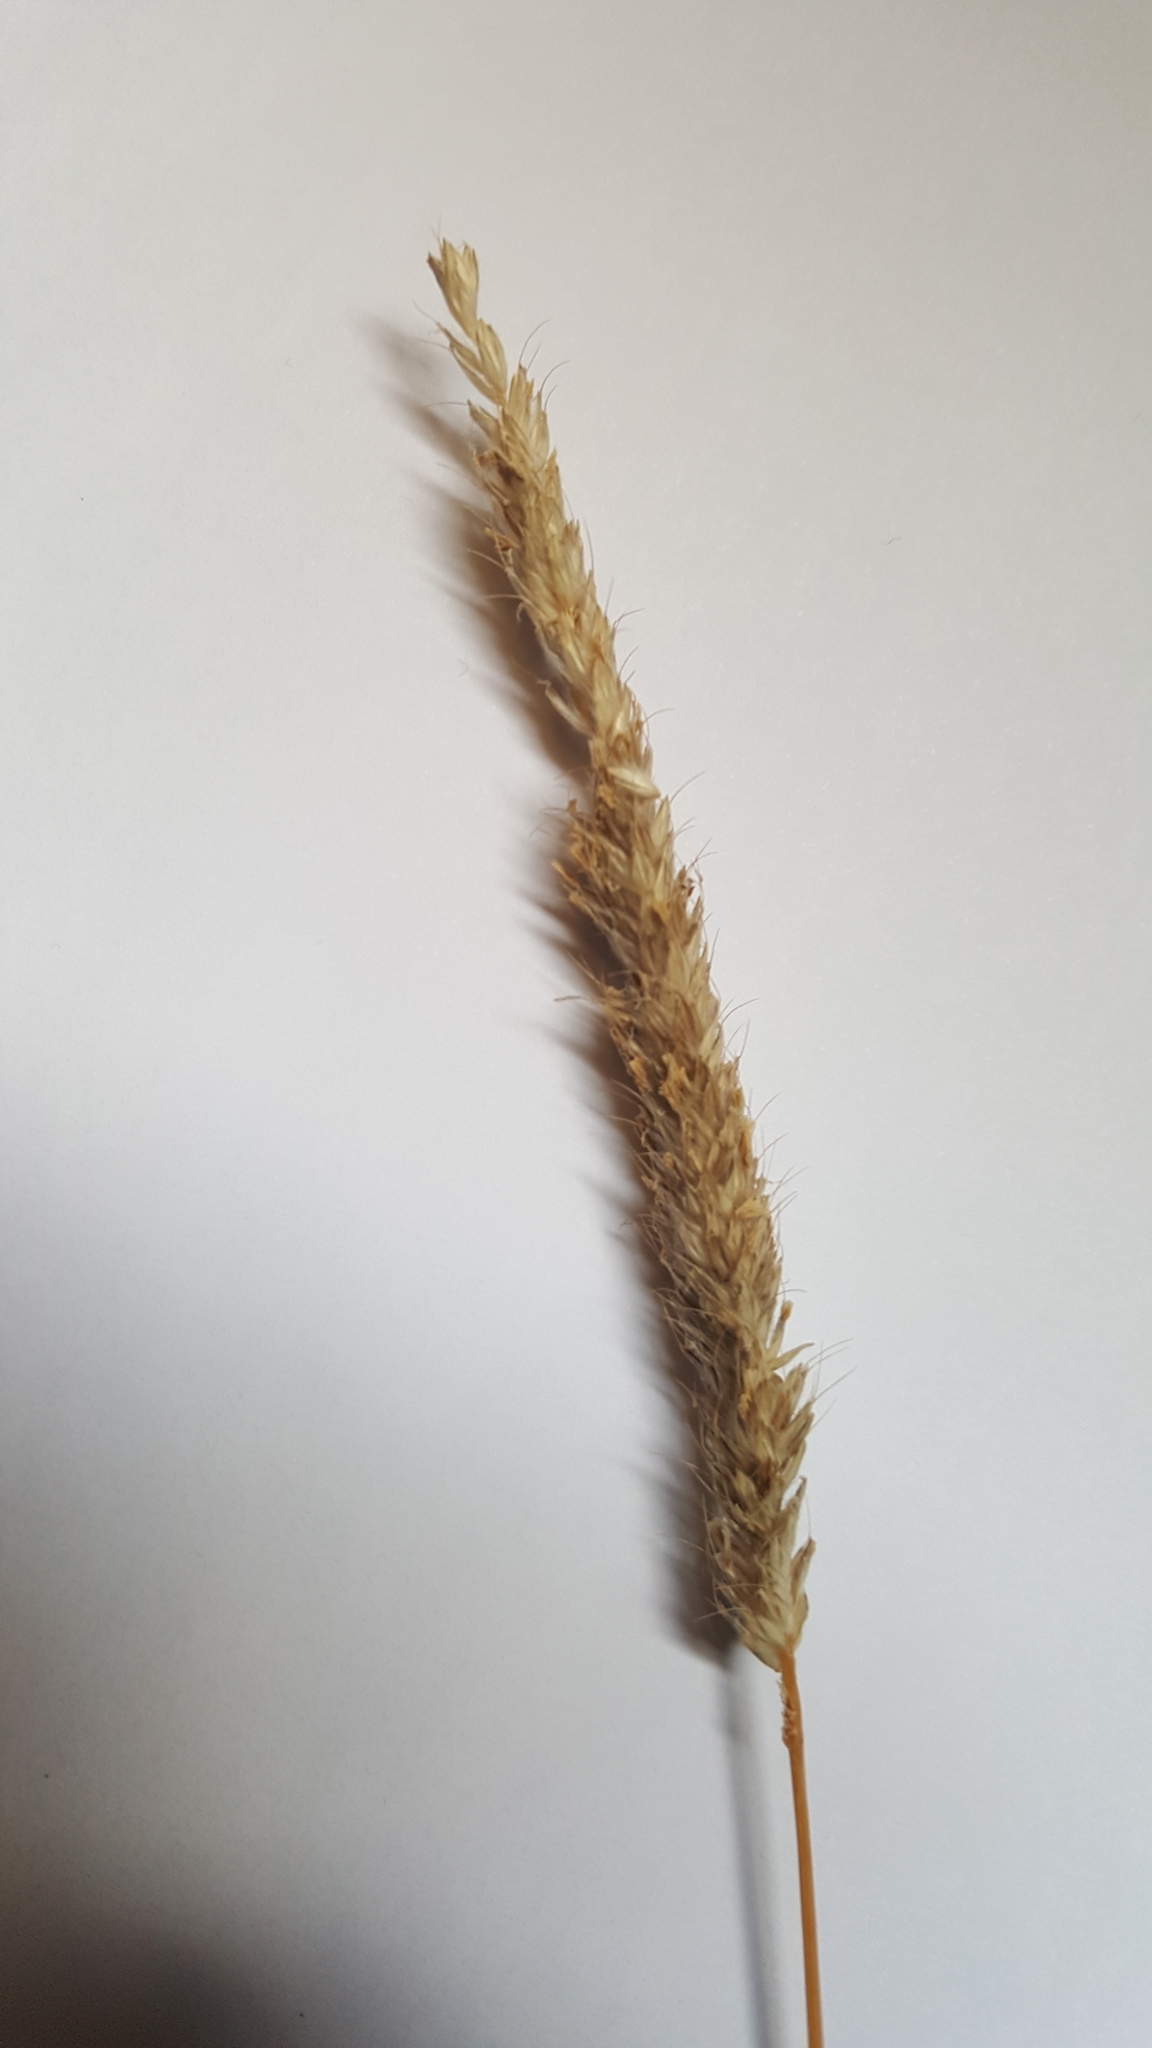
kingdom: Plantae
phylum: Tracheophyta
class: Liliopsida
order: Poales
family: Poaceae
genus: Alopecurus
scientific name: Alopecurus pratensis
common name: Meadow foxtail
